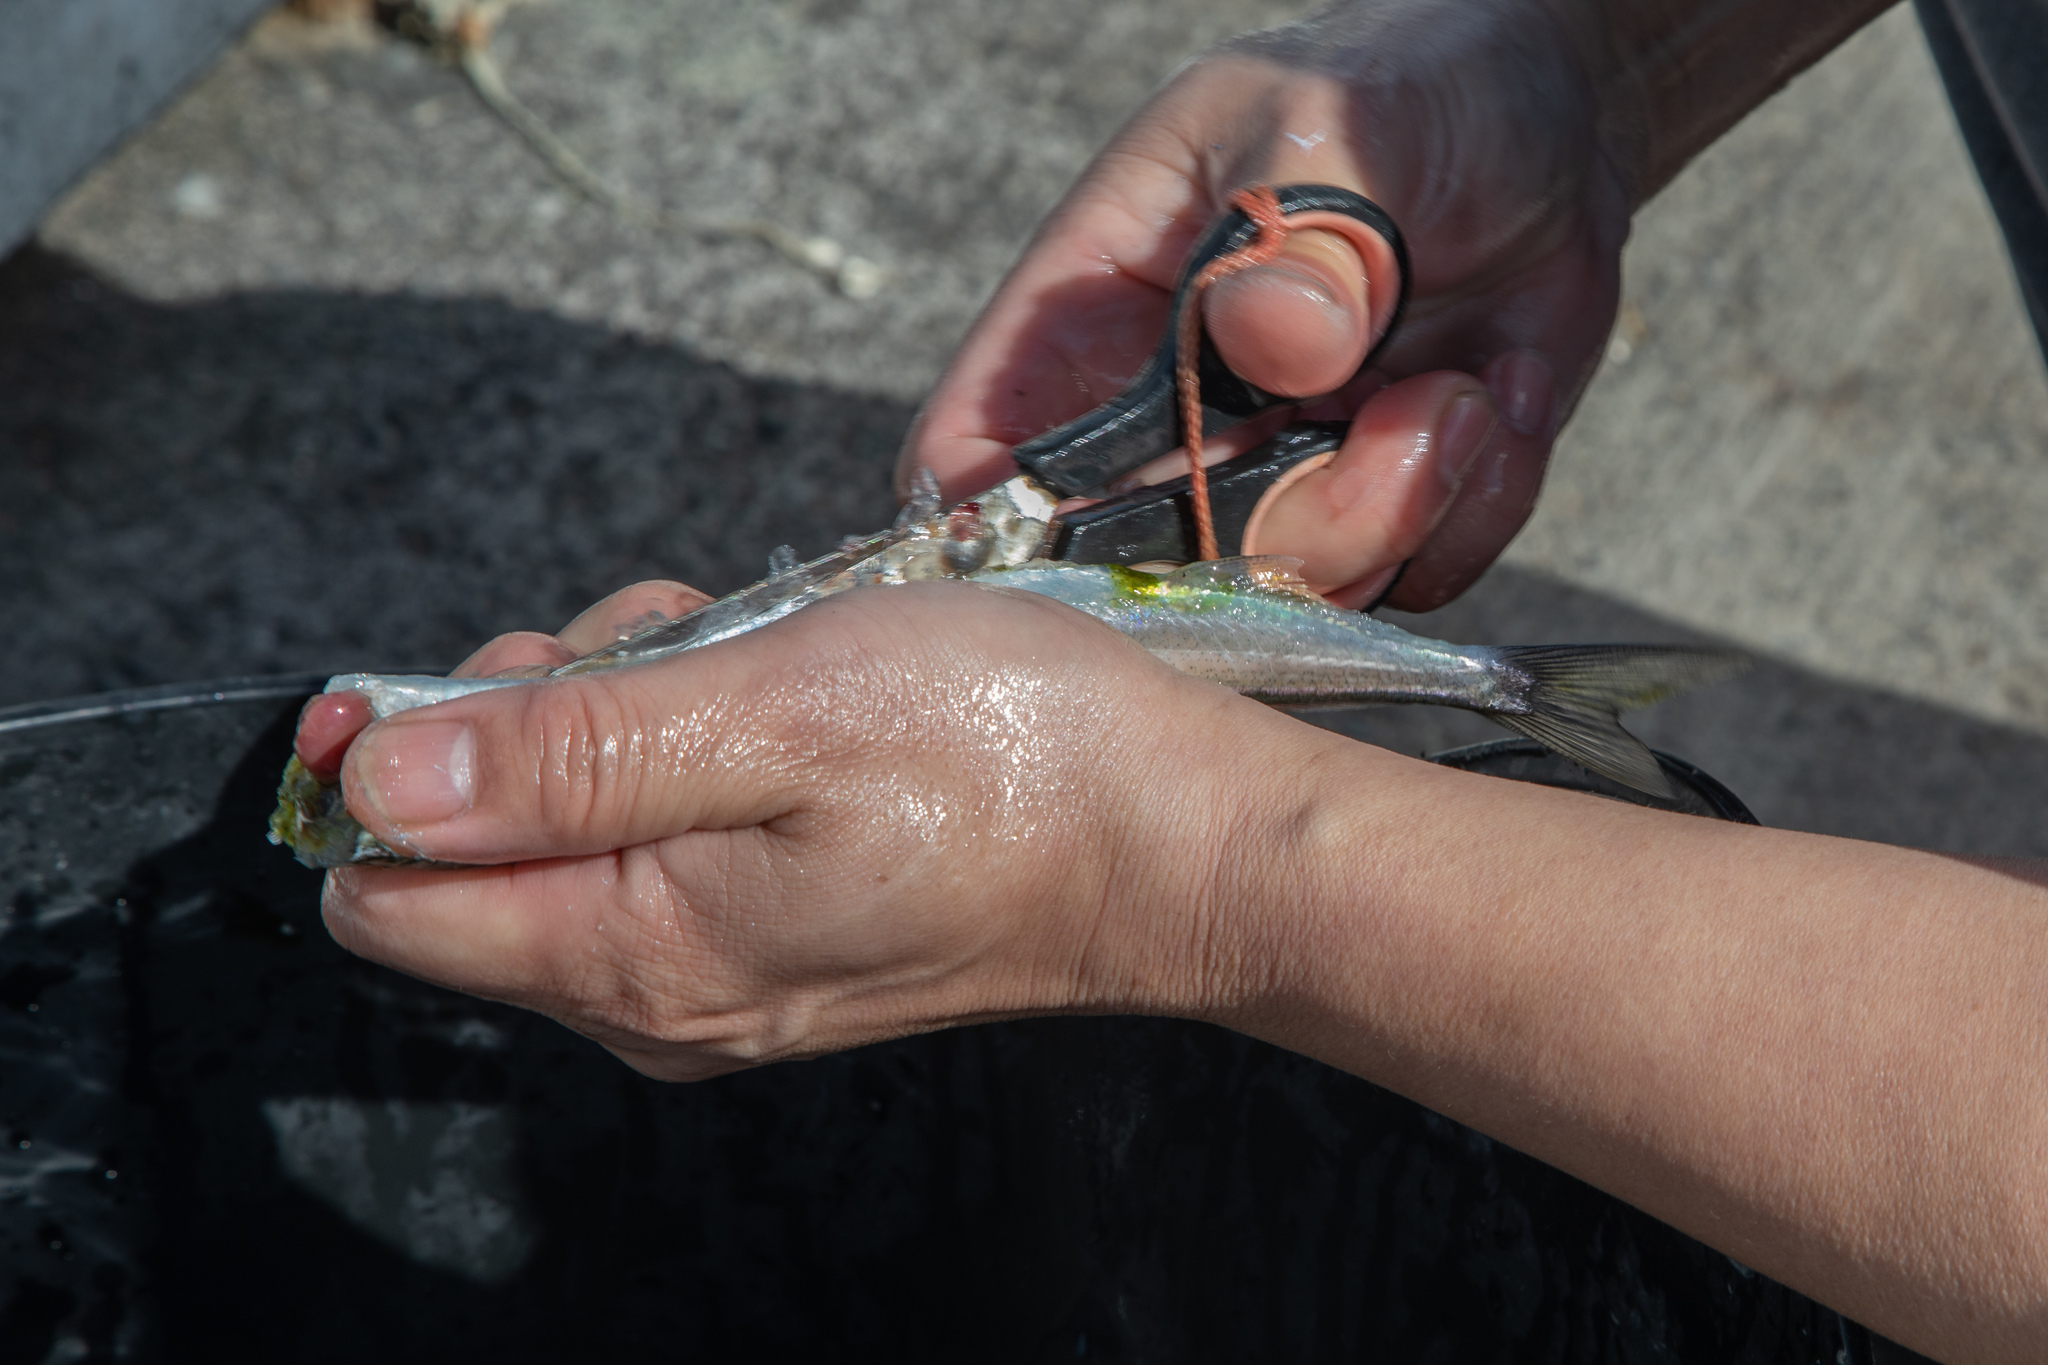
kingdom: Animalia
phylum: Chordata
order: Beloniformes
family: Hemiramphidae
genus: Hyporhamphus
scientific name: Hyporhamphus ihi
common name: Garfish
